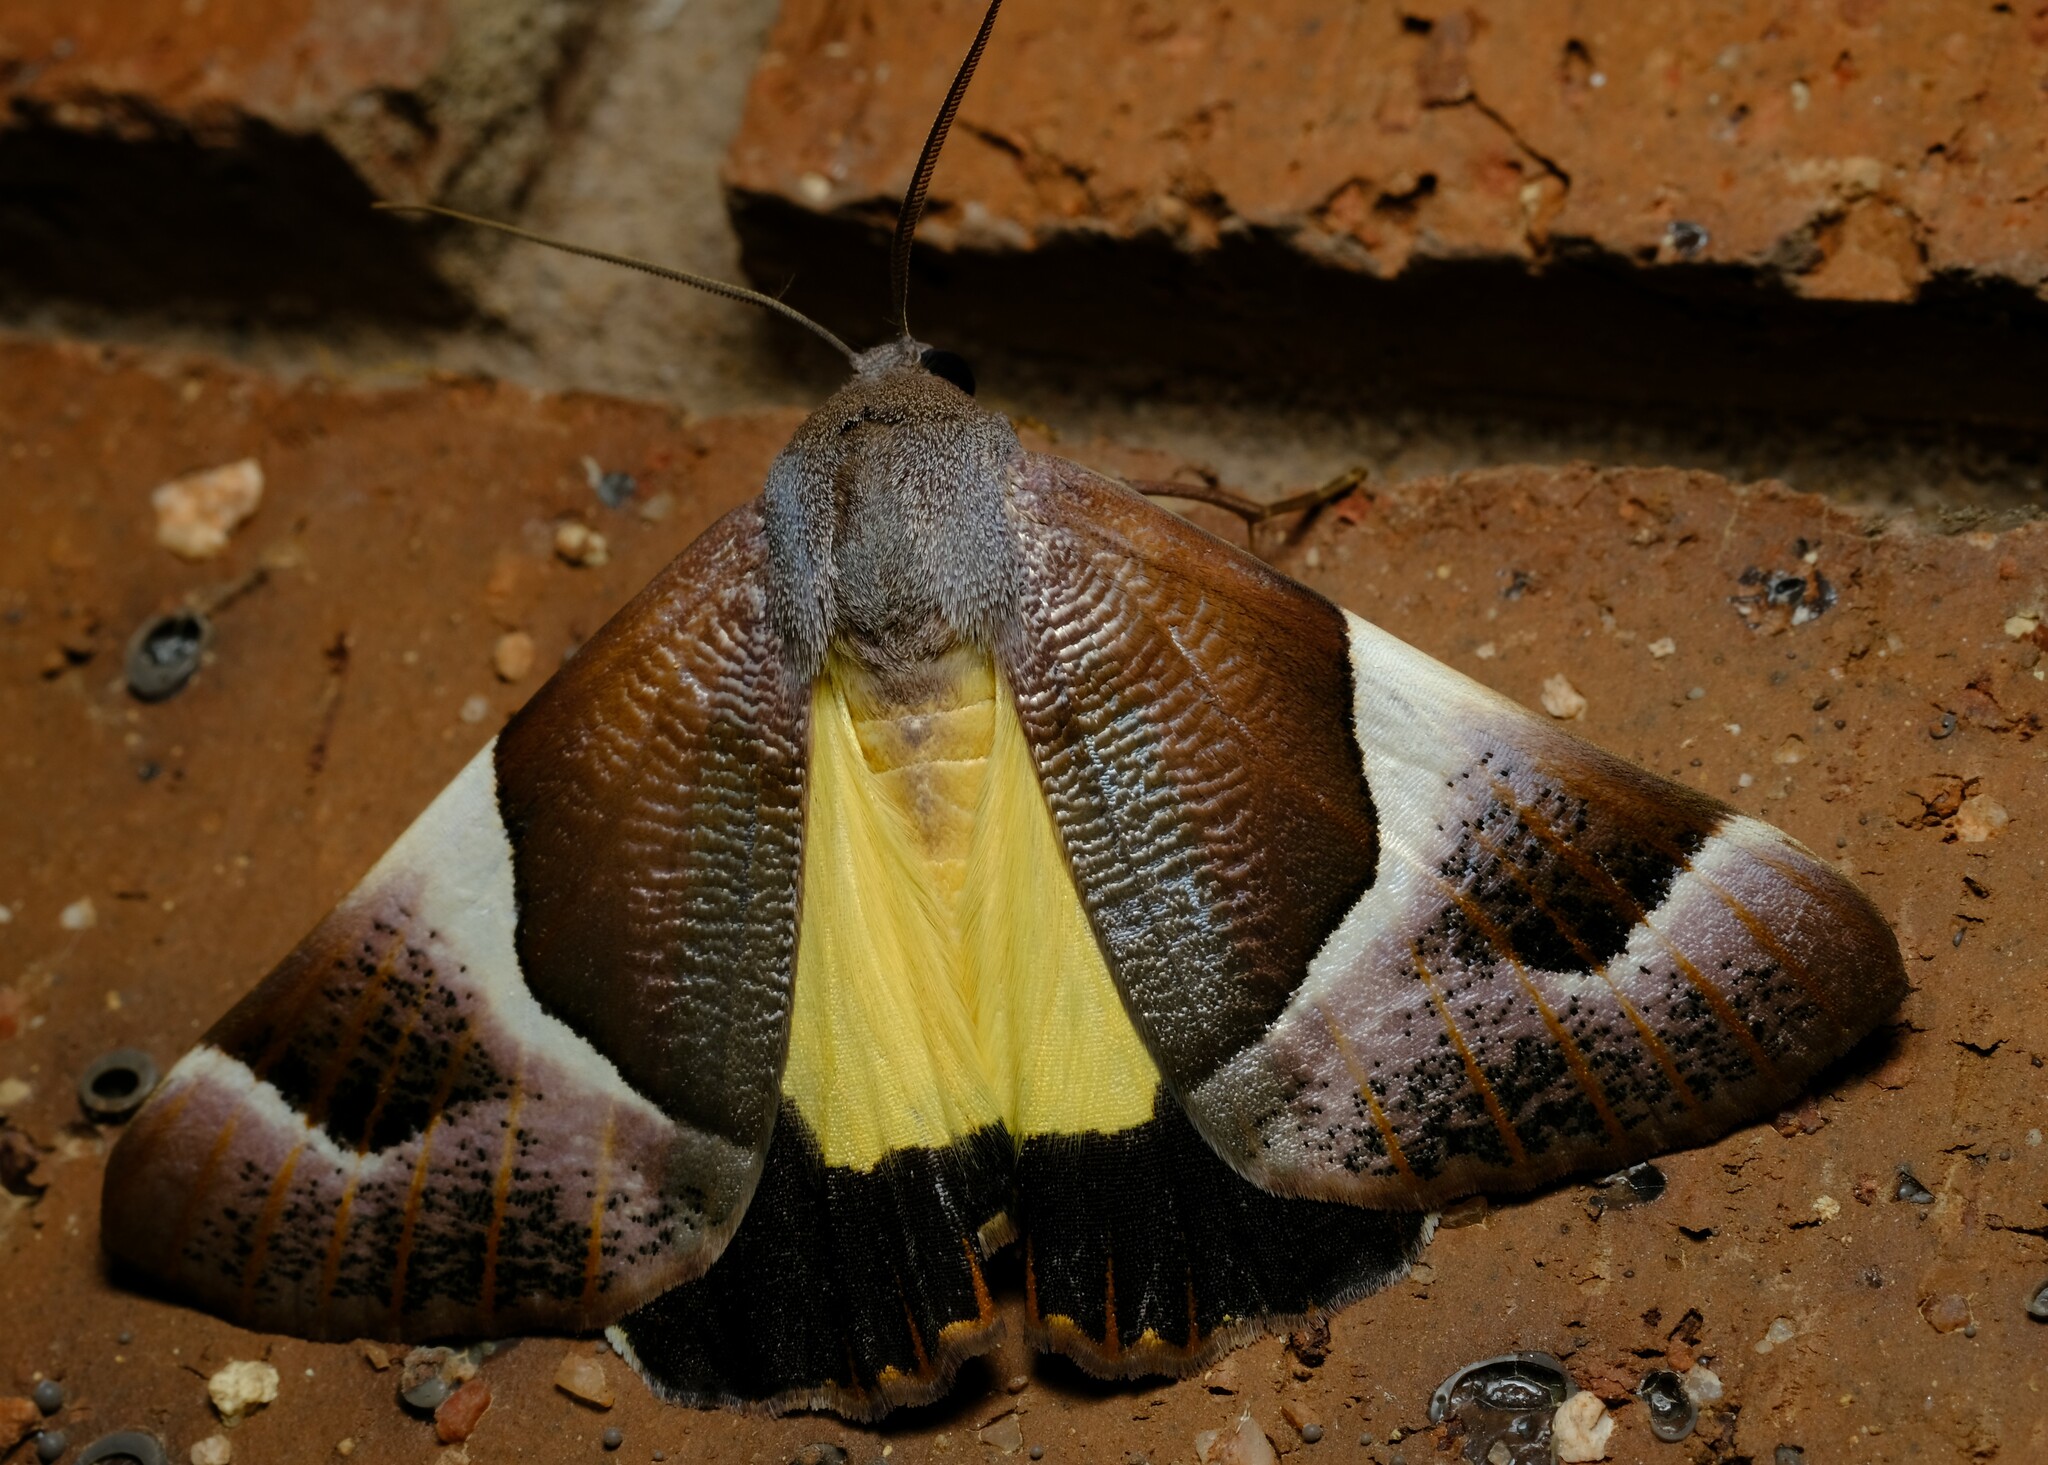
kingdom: Animalia
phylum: Arthropoda
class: Insecta
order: Lepidoptera
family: Geometridae
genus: Niceteria
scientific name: Niceteria macrocosma
